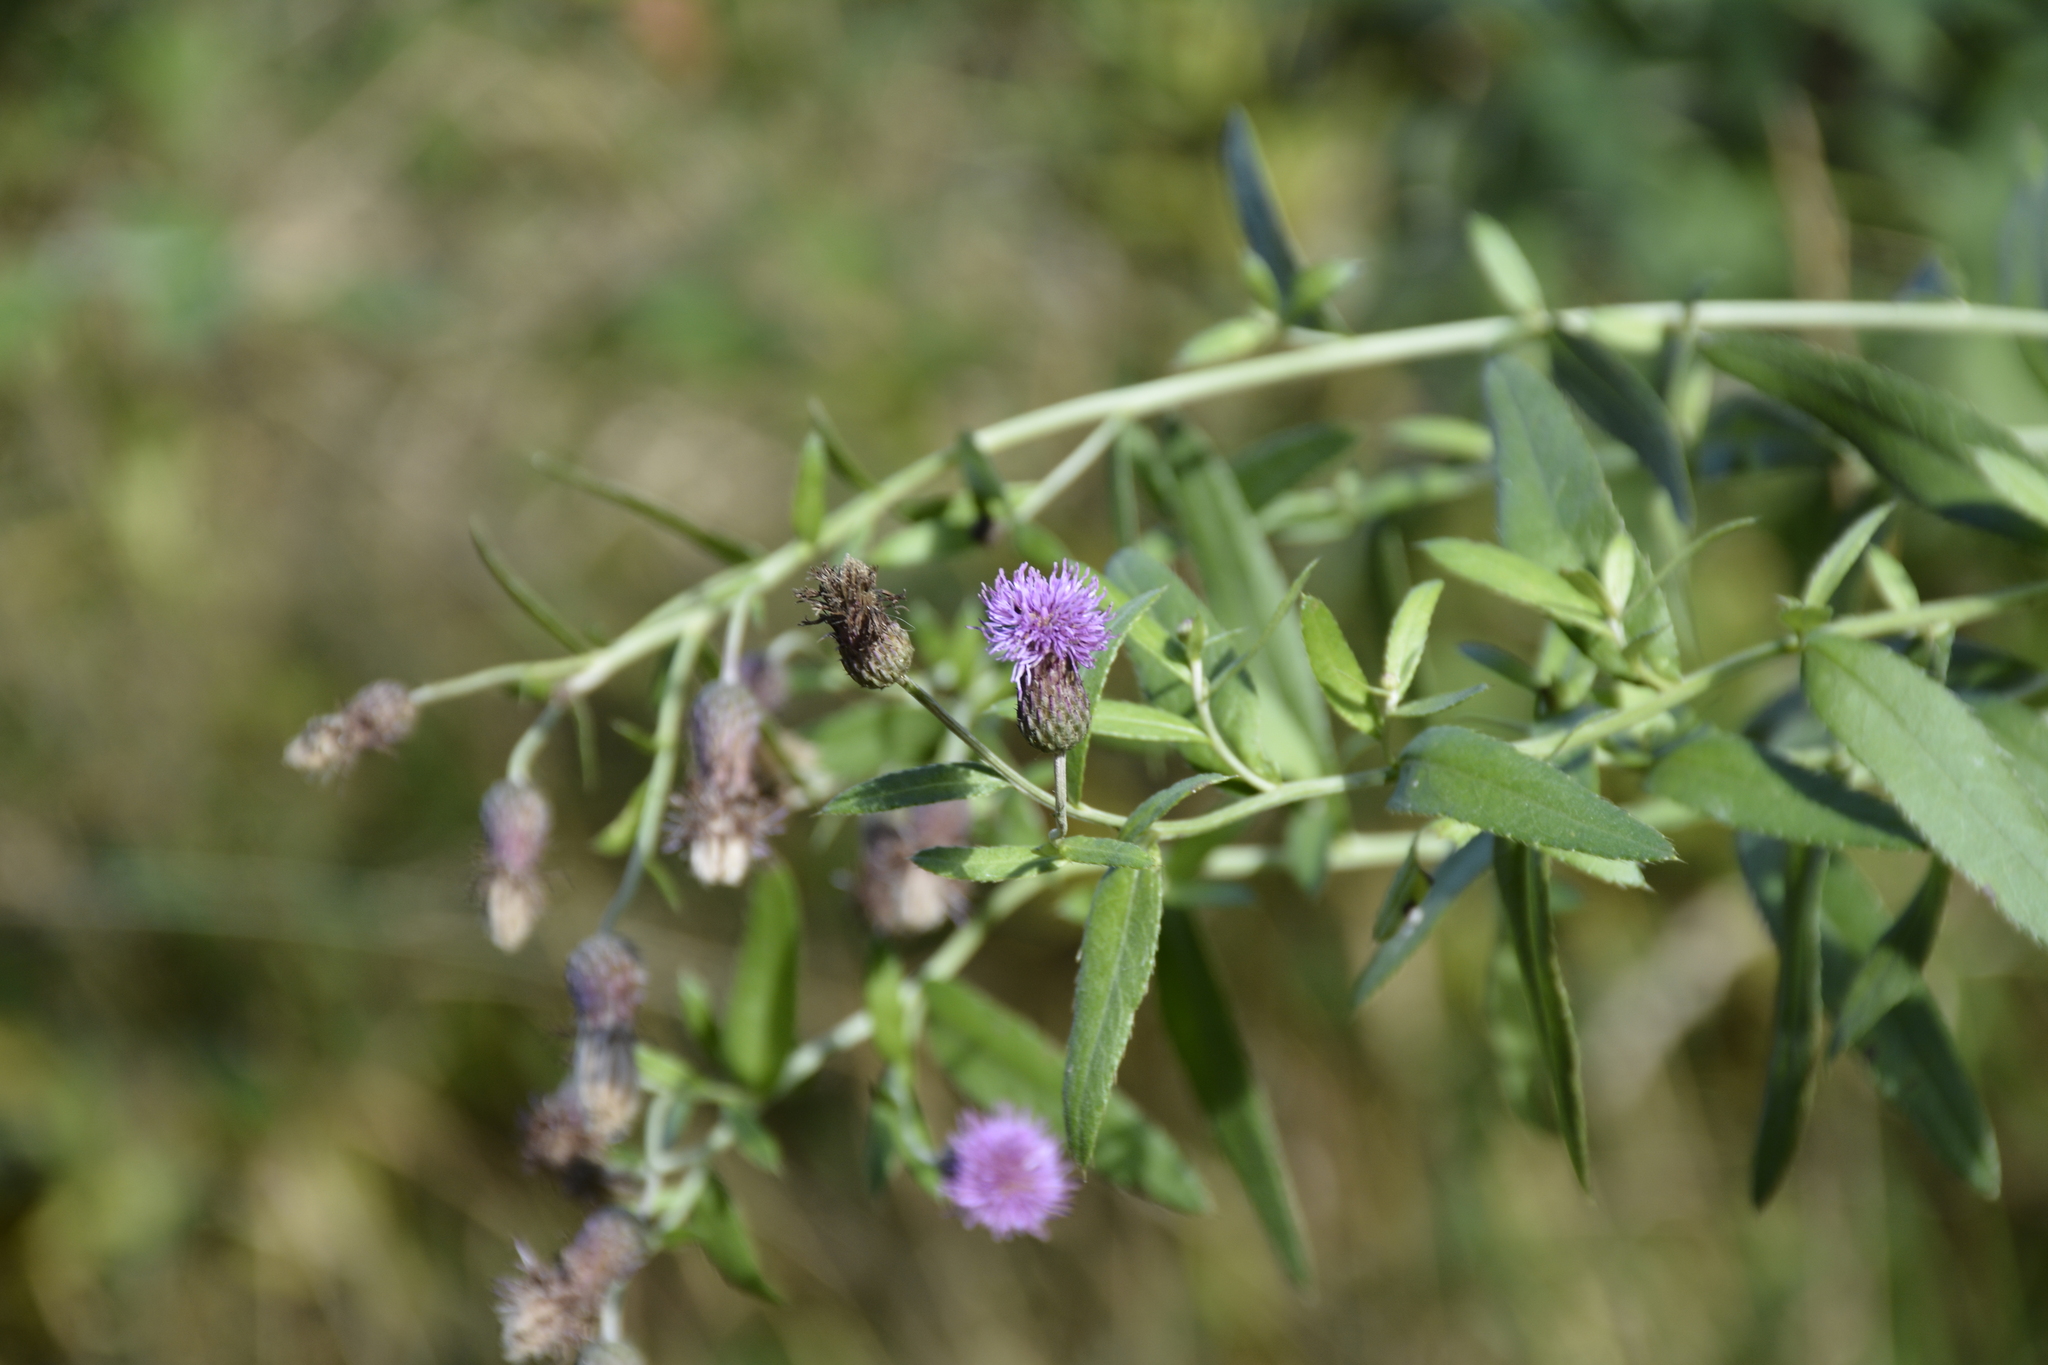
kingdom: Plantae
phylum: Tracheophyta
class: Magnoliopsida
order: Asterales
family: Asteraceae
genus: Cirsium
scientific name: Cirsium arvense
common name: Creeping thistle
